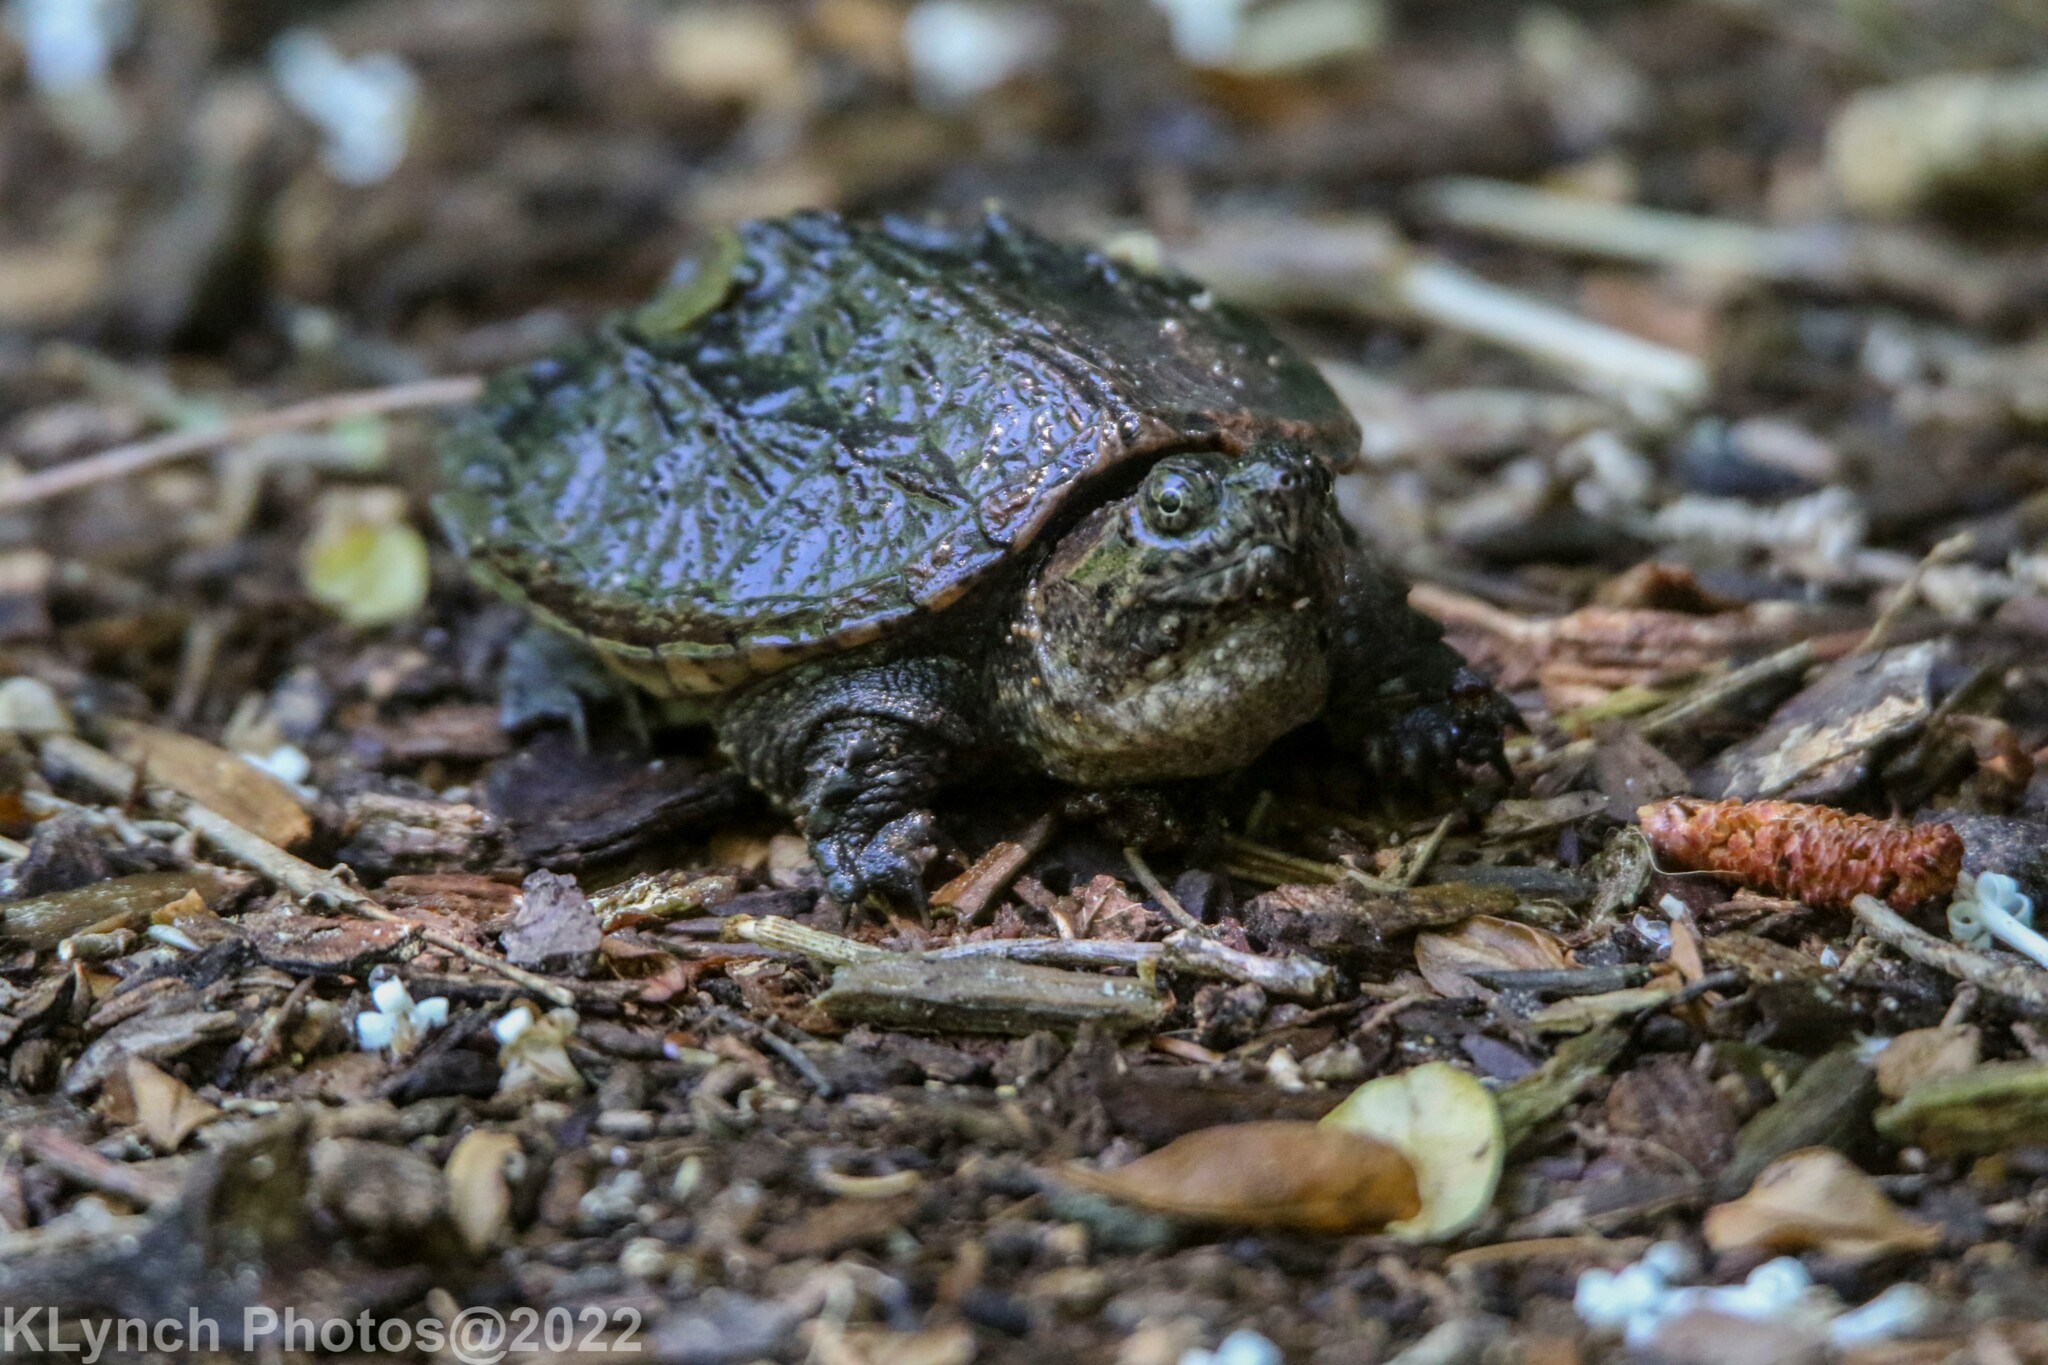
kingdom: Animalia
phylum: Chordata
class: Testudines
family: Chelydridae
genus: Chelydra
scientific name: Chelydra serpentina
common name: Common snapping turtle
